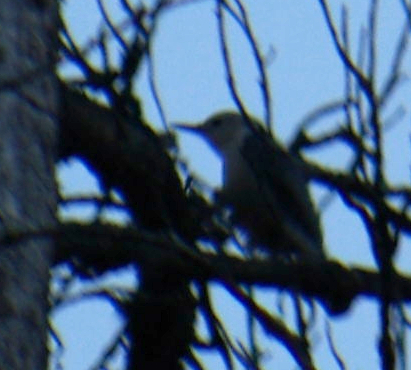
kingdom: Animalia
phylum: Chordata
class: Aves
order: Passeriformes
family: Sittidae
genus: Sitta
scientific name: Sitta carolinensis
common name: White-breasted nuthatch
